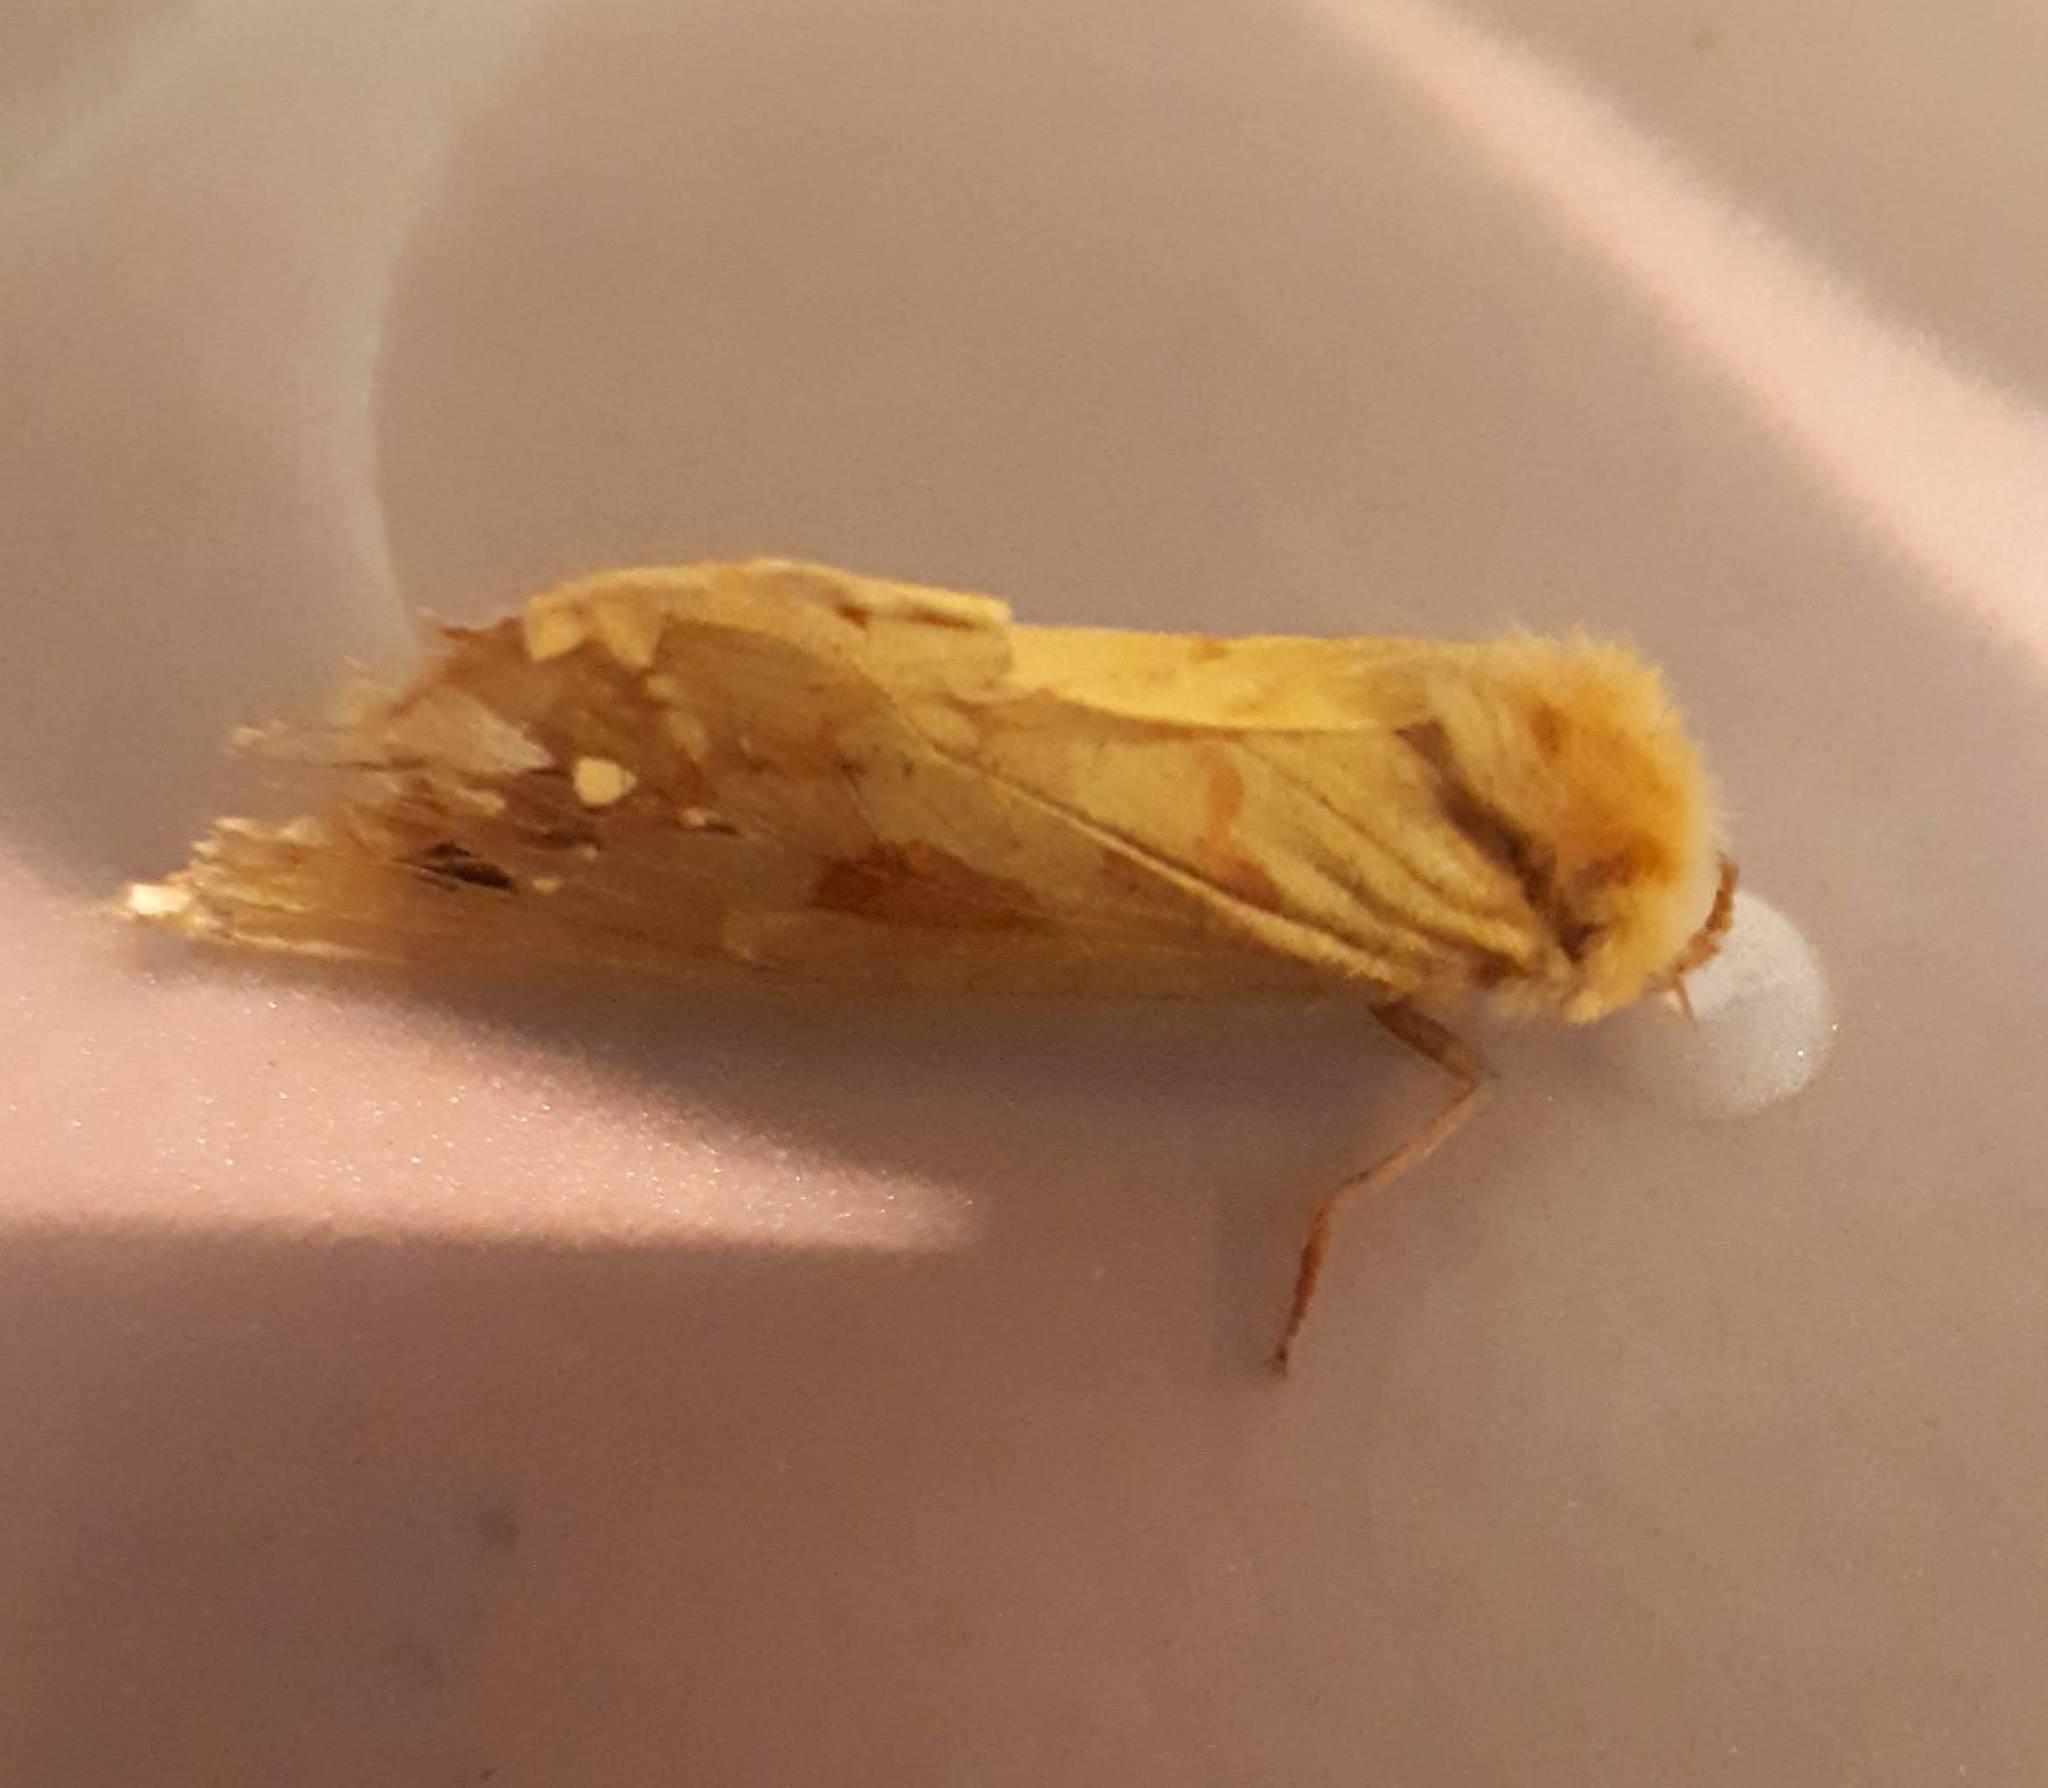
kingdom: Animalia
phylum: Arthropoda
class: Insecta
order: Lepidoptera
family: Hepialidae
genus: Hepialus
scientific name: Hepialus humuli
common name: Ghost moth
